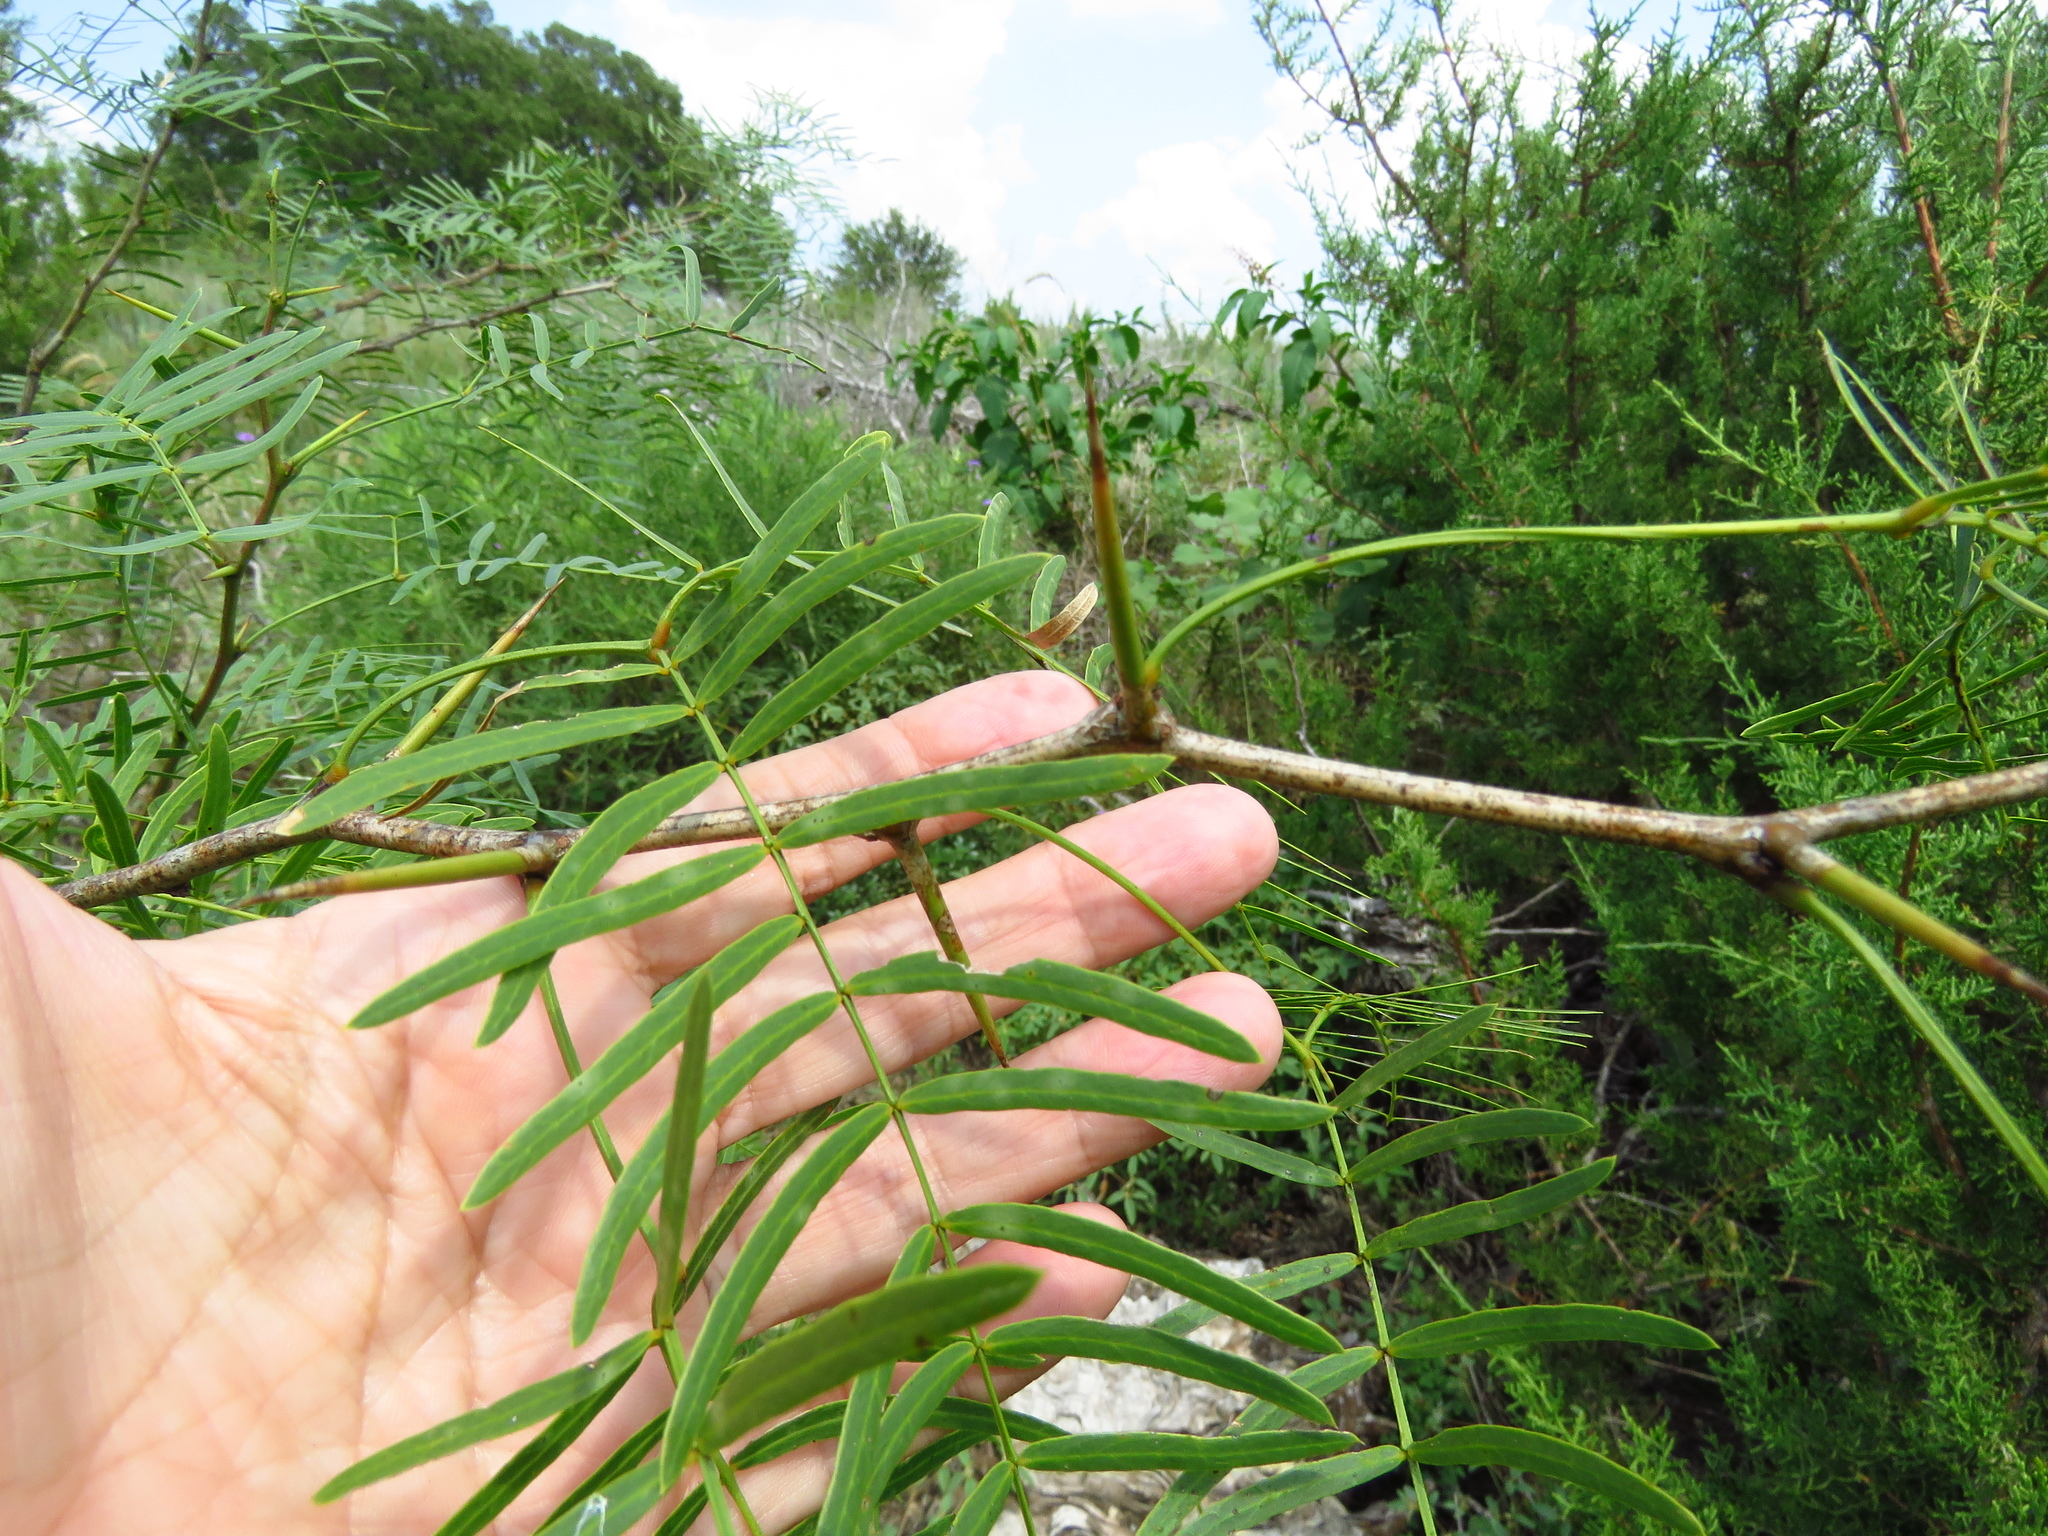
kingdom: Plantae
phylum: Tracheophyta
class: Magnoliopsida
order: Fabales
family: Fabaceae
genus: Prosopis
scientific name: Prosopis glandulosa
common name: Honey mesquite
